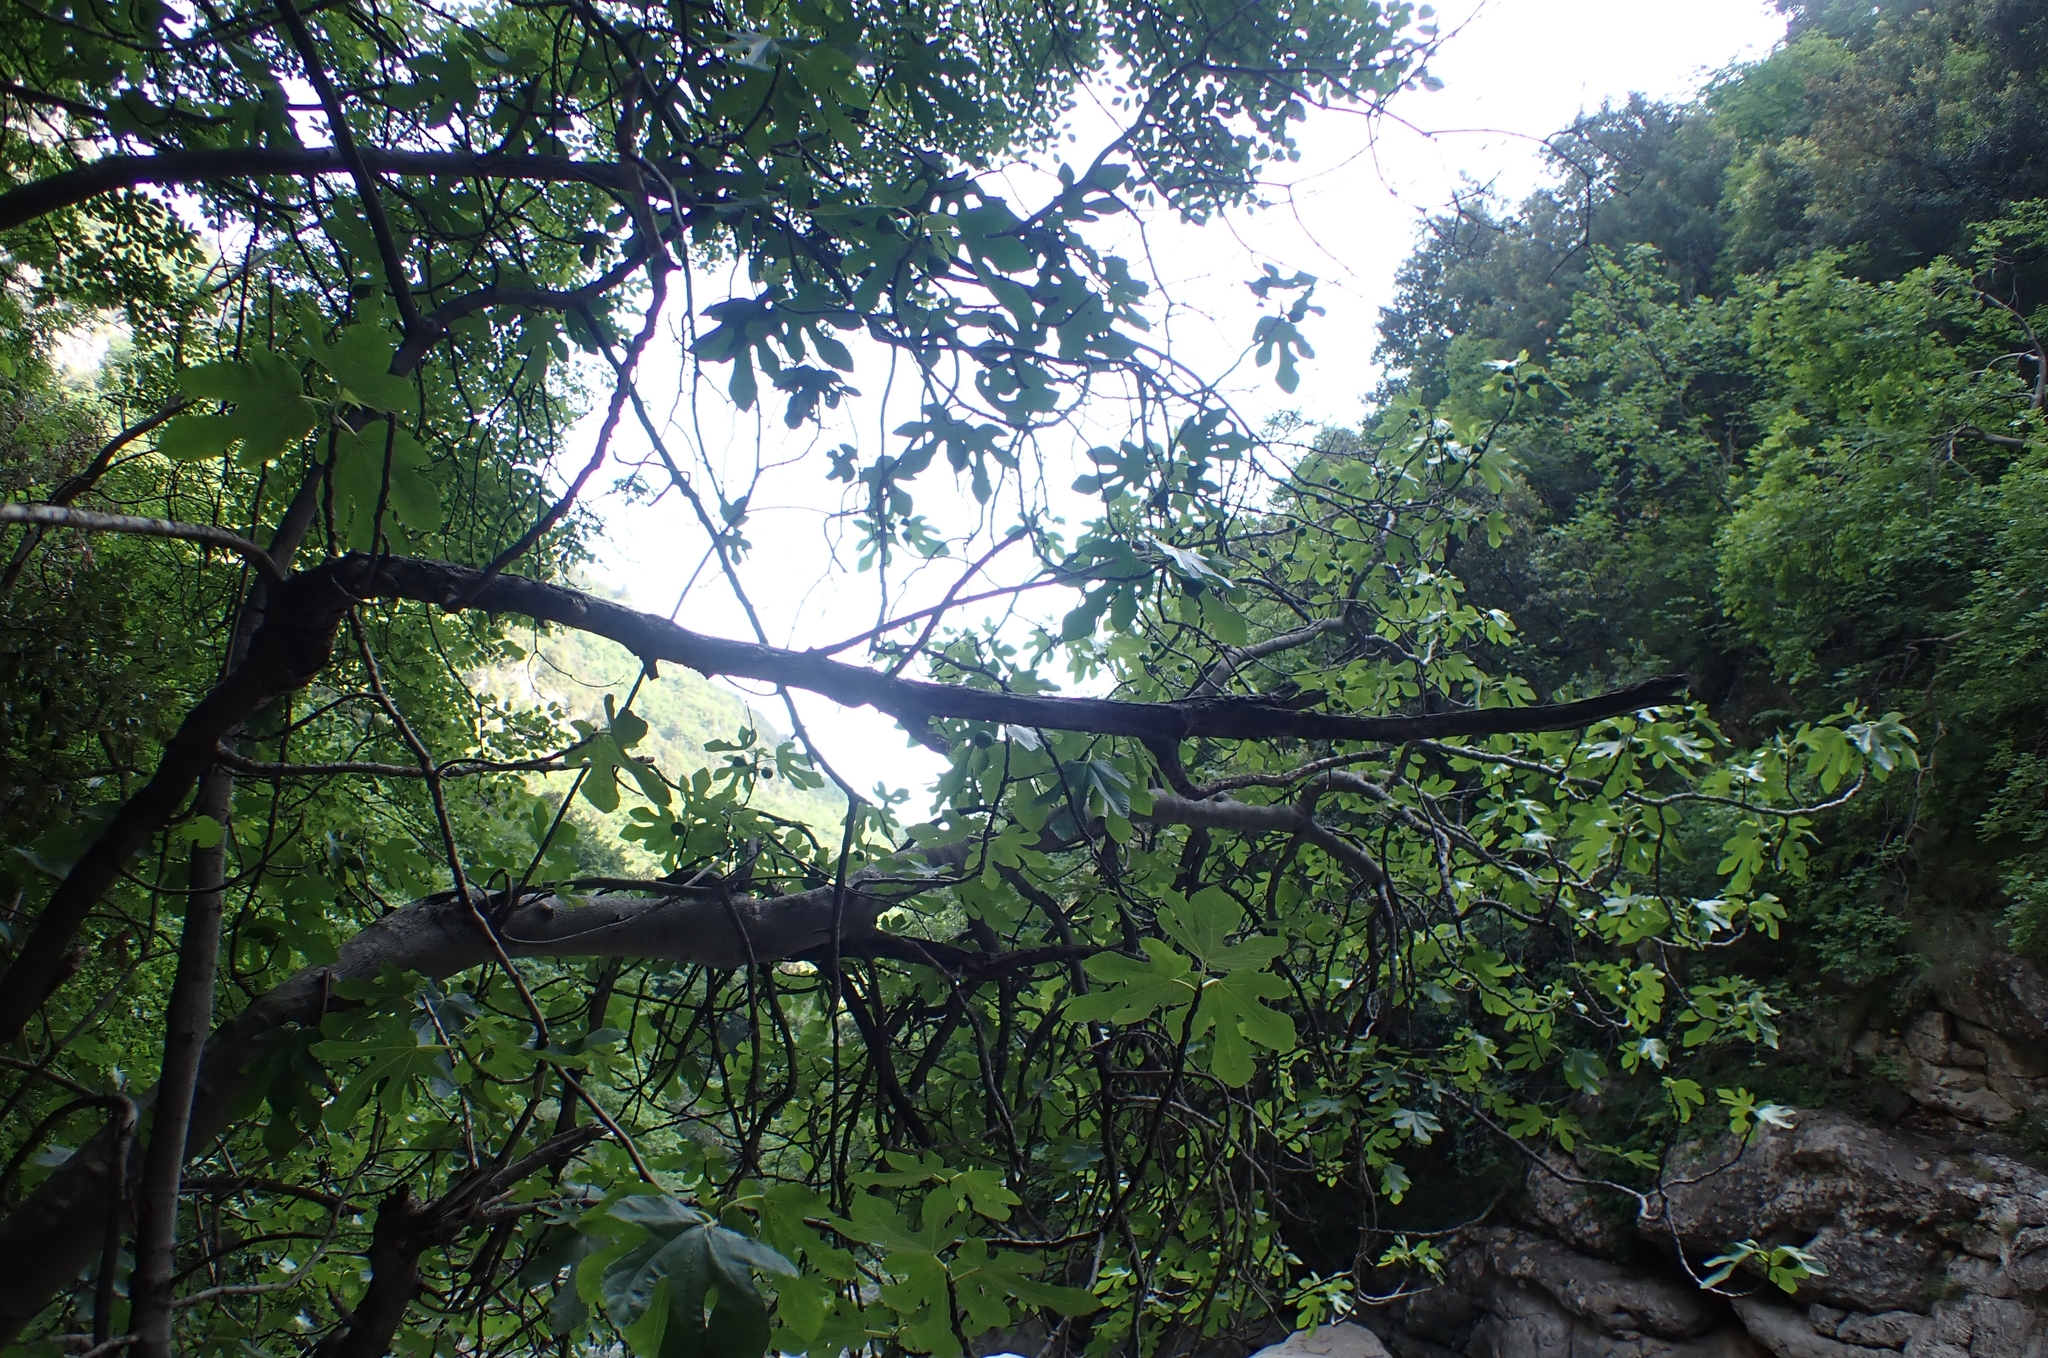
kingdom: Plantae
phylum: Tracheophyta
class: Magnoliopsida
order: Rosales
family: Moraceae
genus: Ficus
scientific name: Ficus carica
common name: Fig
